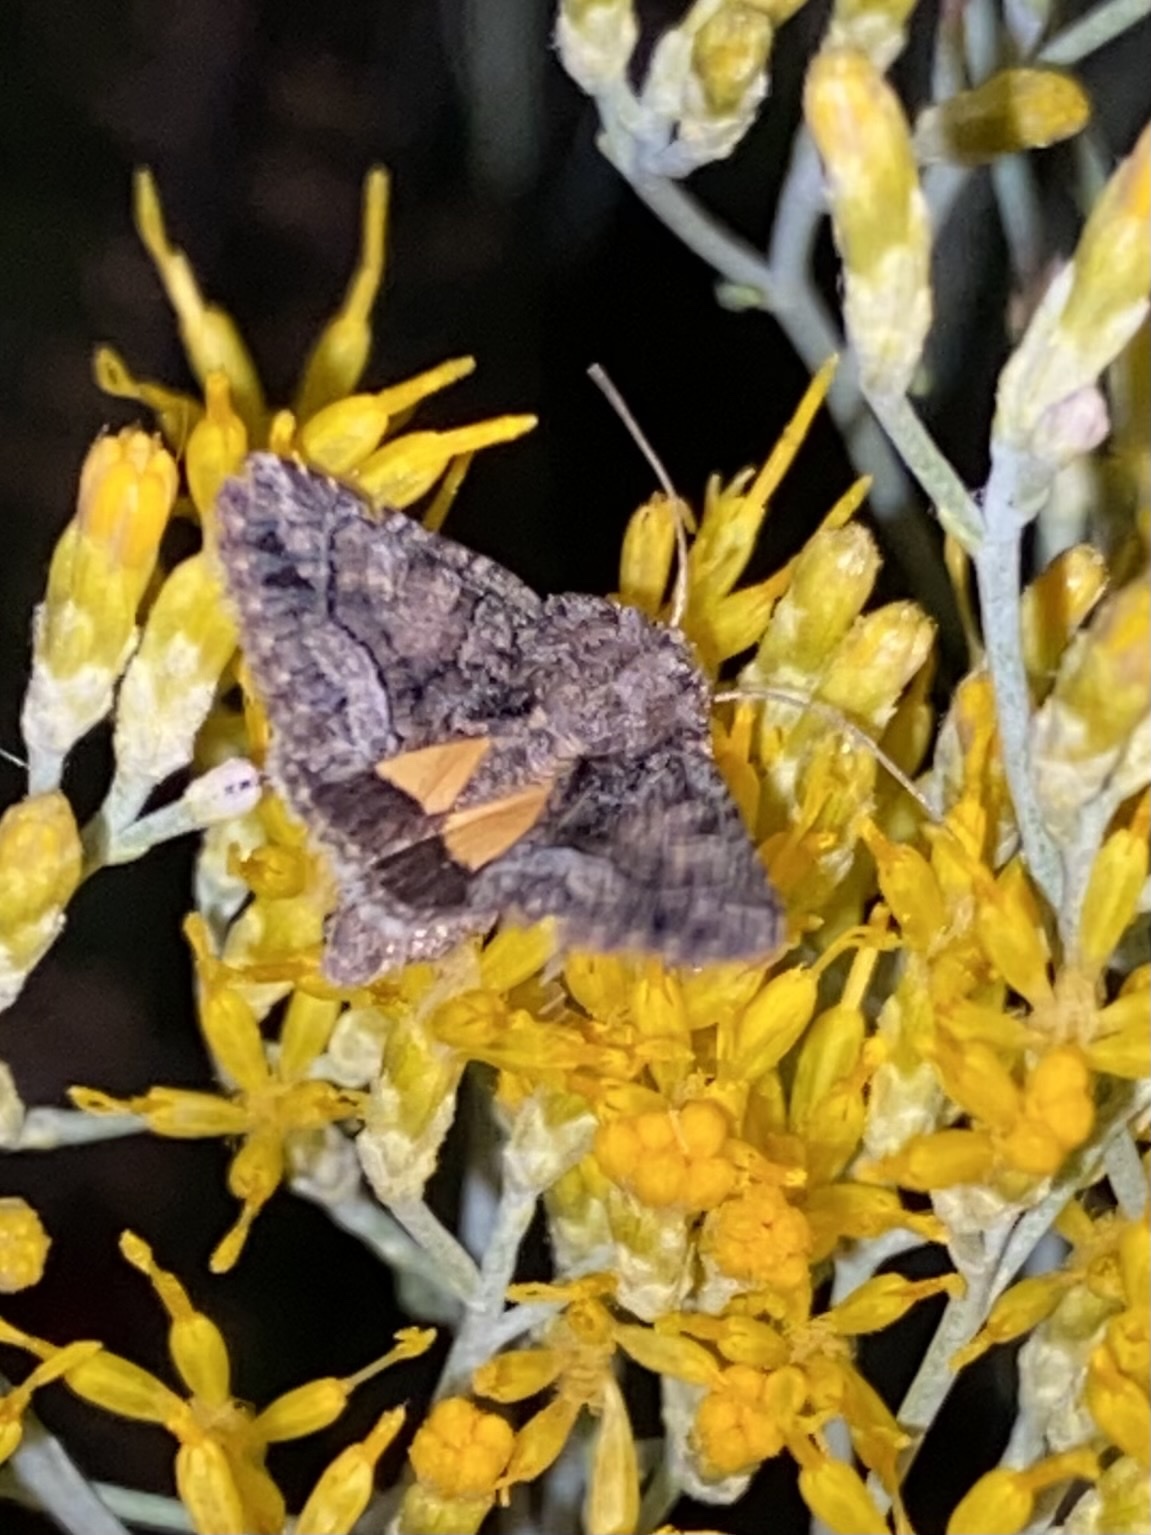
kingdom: Animalia
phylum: Arthropoda
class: Insecta
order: Lepidoptera
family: Noctuidae
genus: Pseudanarta
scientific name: Pseudanarta singula
